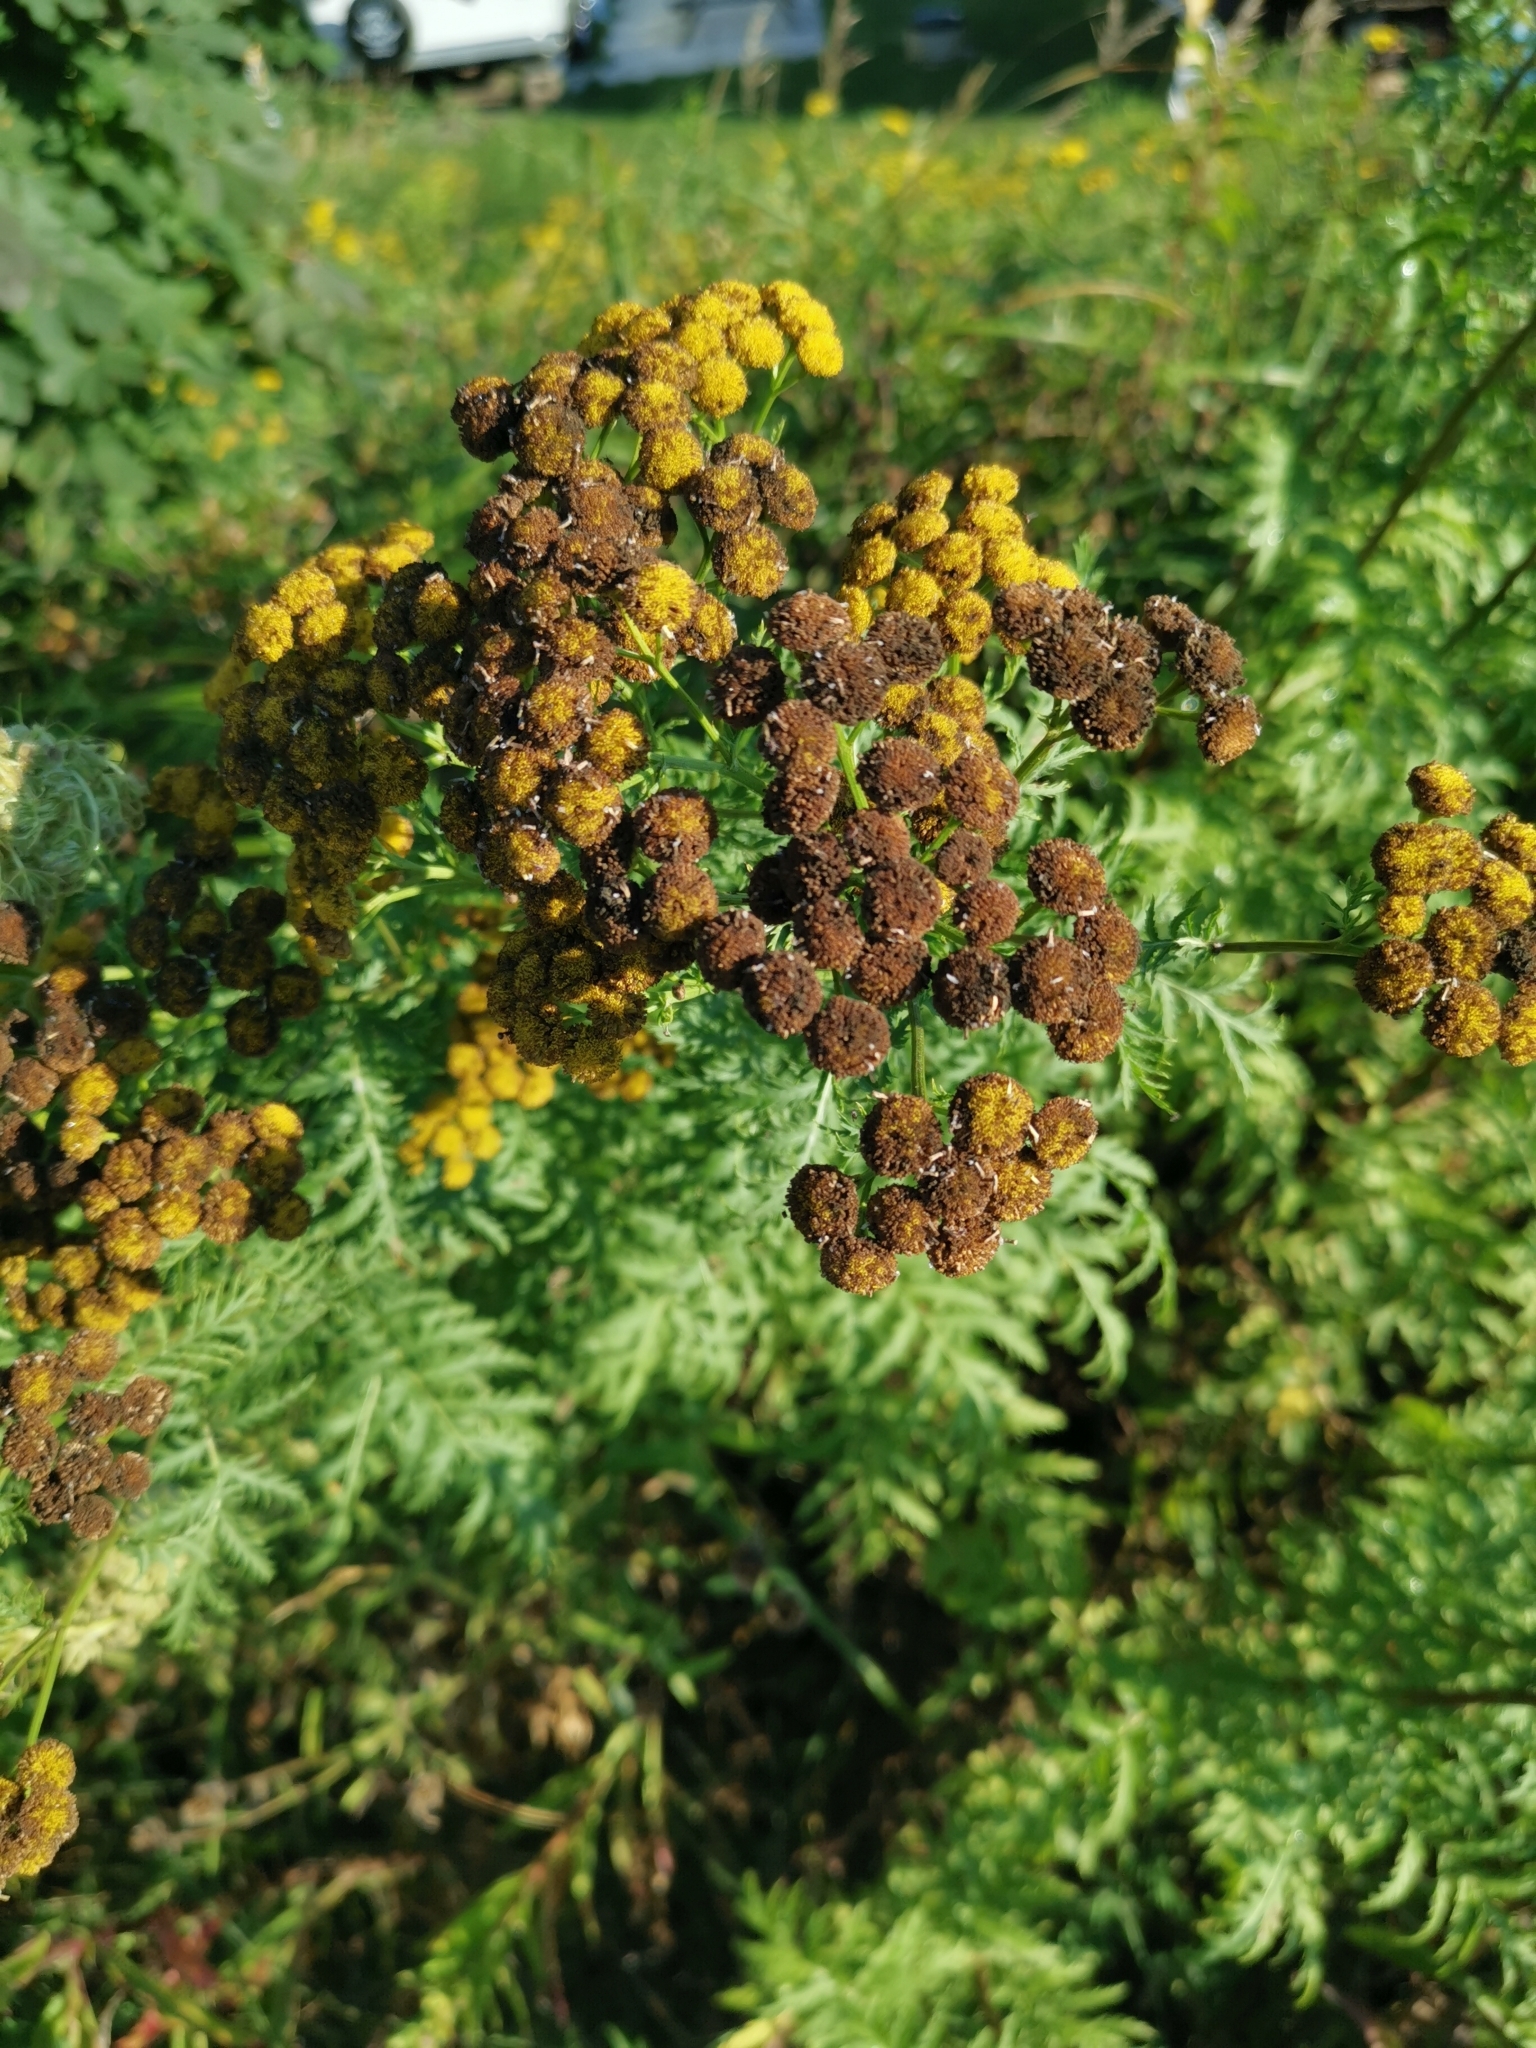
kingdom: Plantae
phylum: Tracheophyta
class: Magnoliopsida
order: Asterales
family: Asteraceae
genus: Tanacetum
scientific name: Tanacetum vulgare
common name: Common tansy
